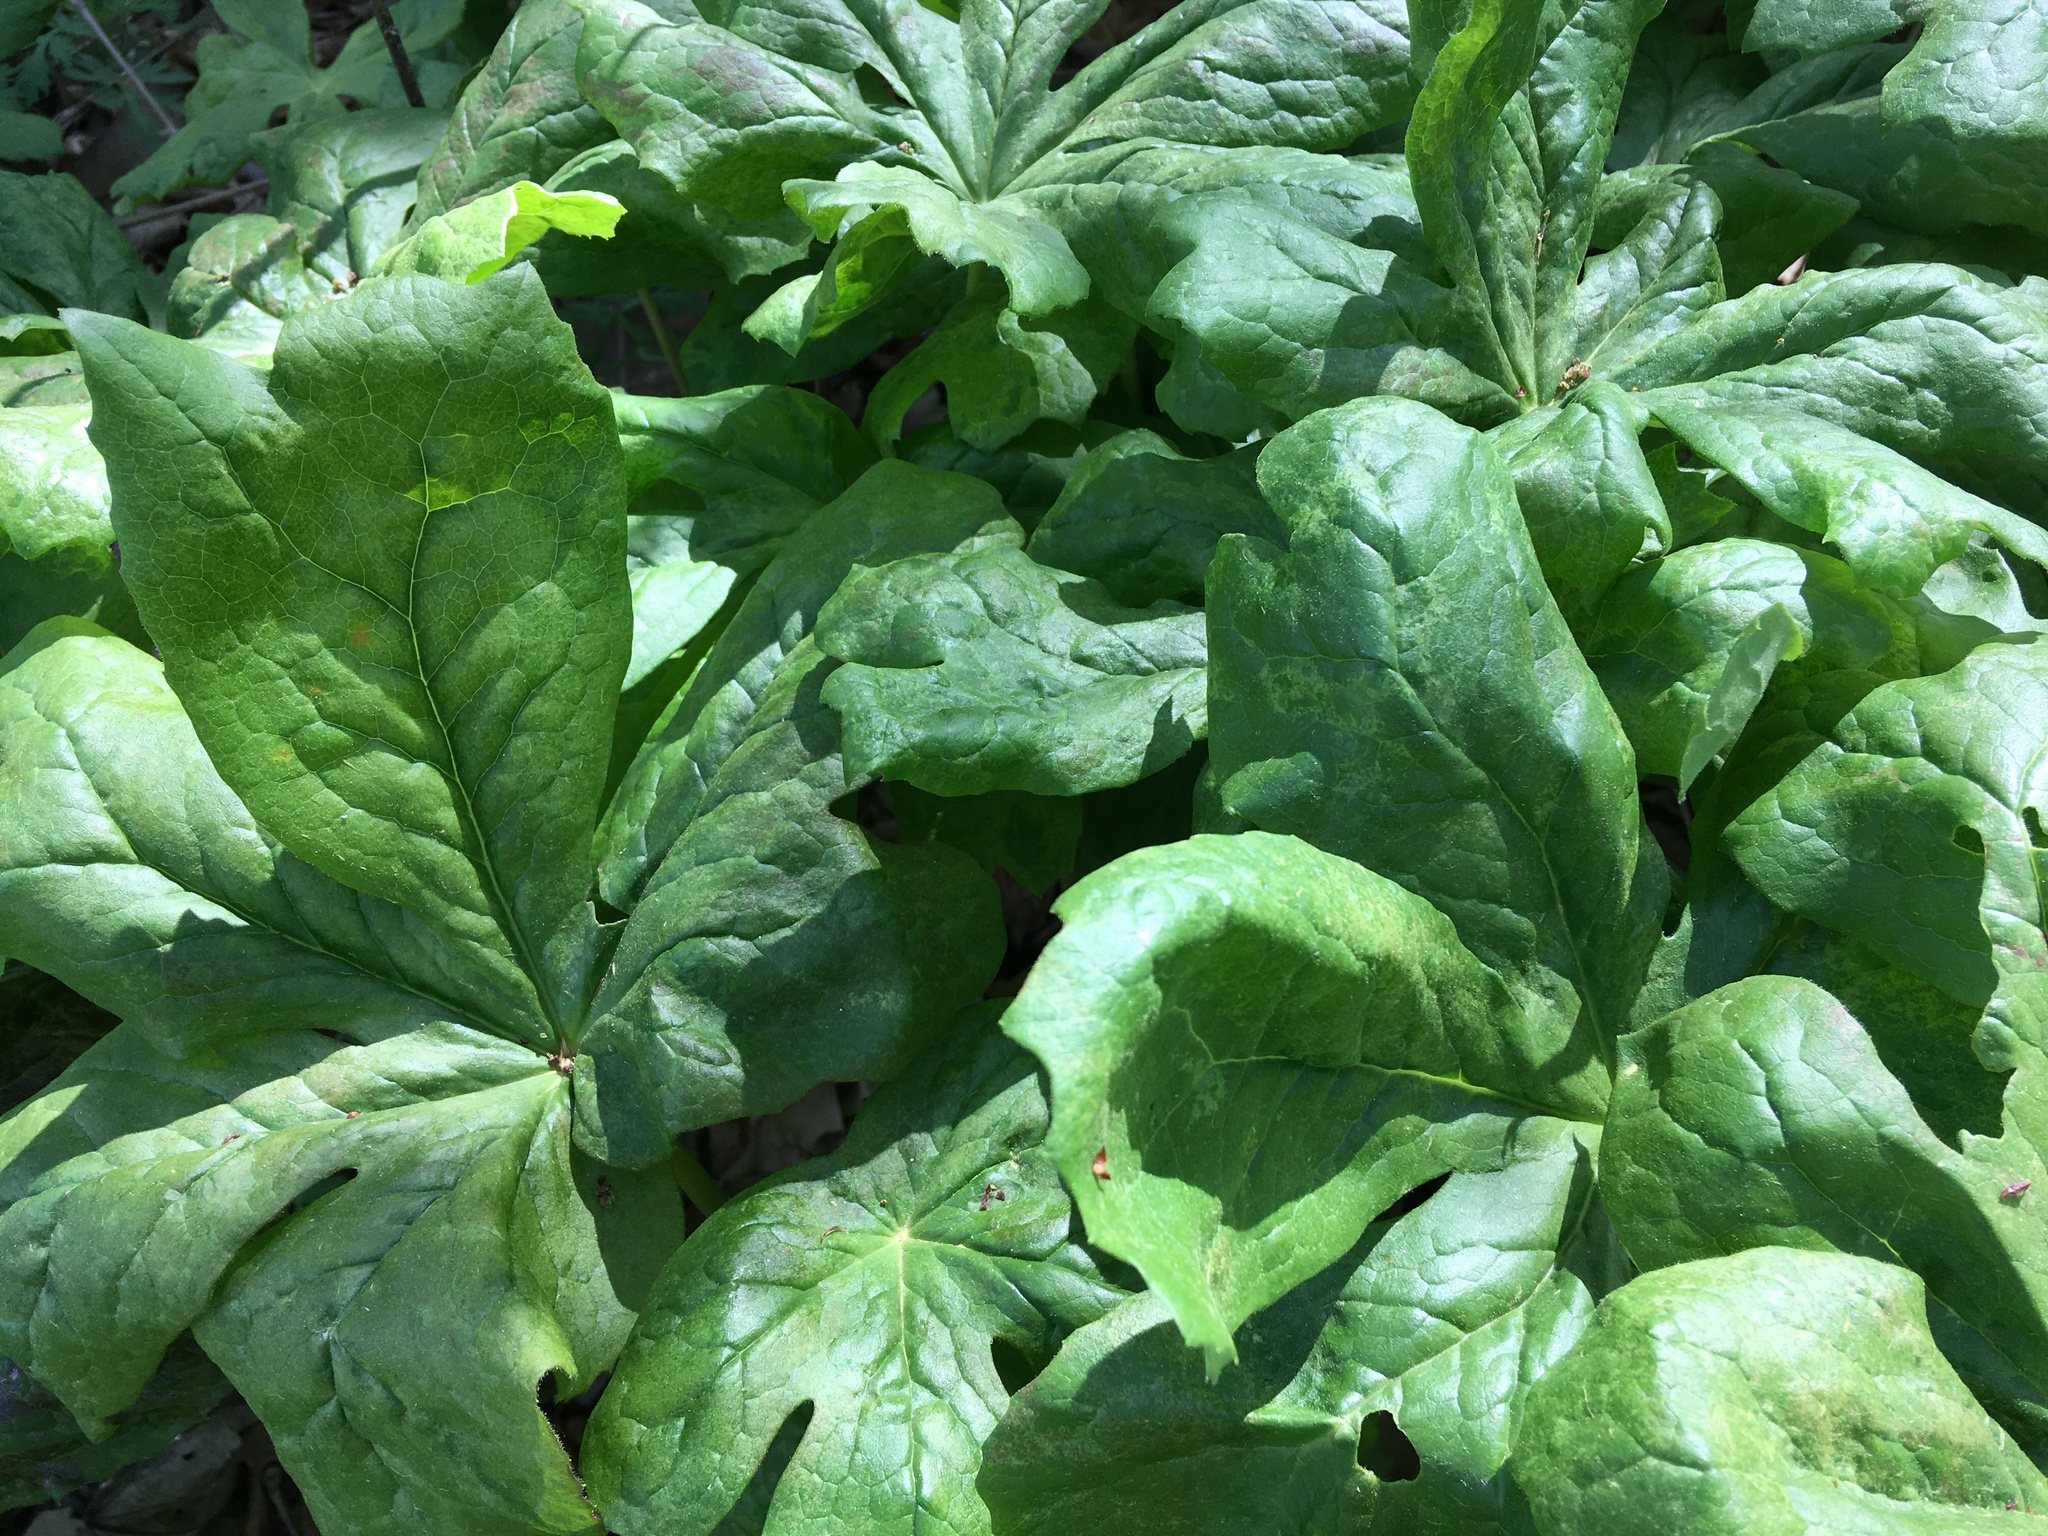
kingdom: Plantae
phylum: Tracheophyta
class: Magnoliopsida
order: Ranunculales
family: Berberidaceae
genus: Podophyllum
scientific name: Podophyllum peltatum
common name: Wild mandrake
